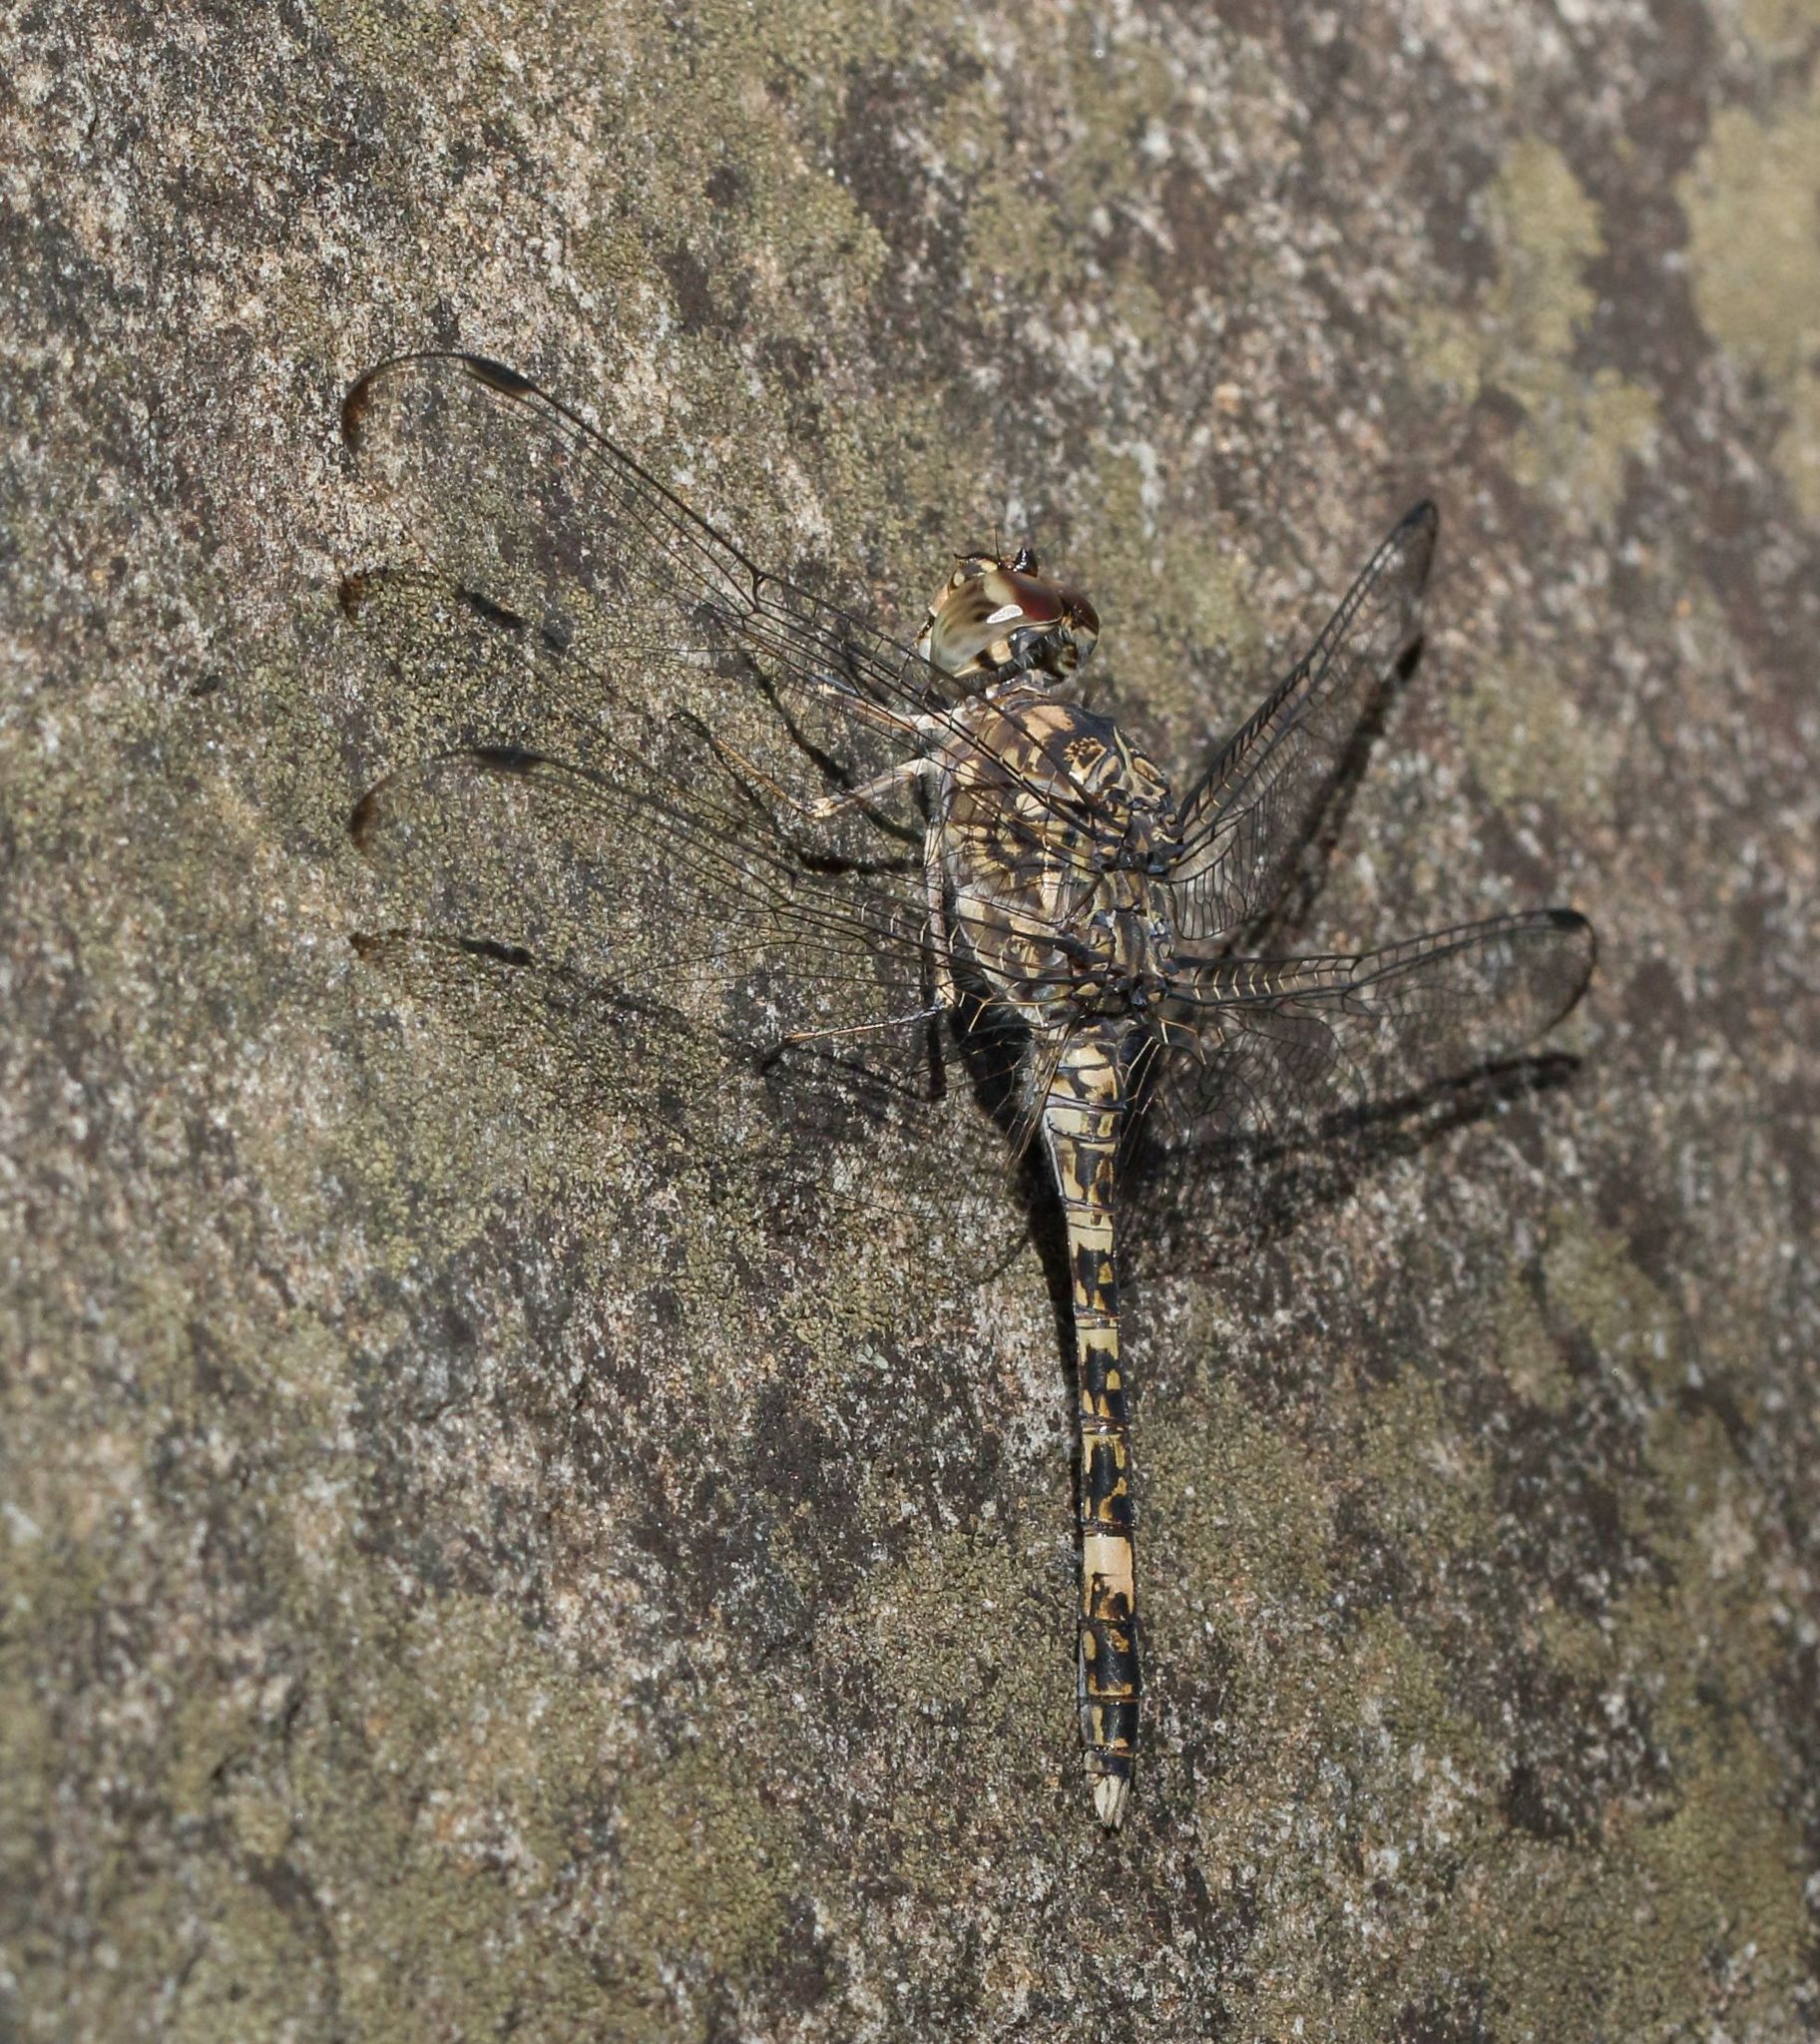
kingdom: Animalia
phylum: Arthropoda
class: Insecta
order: Odonata
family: Libellulidae
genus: Bradinopyga
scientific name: Bradinopyga cornuta
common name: Flecked wall-skimmer
